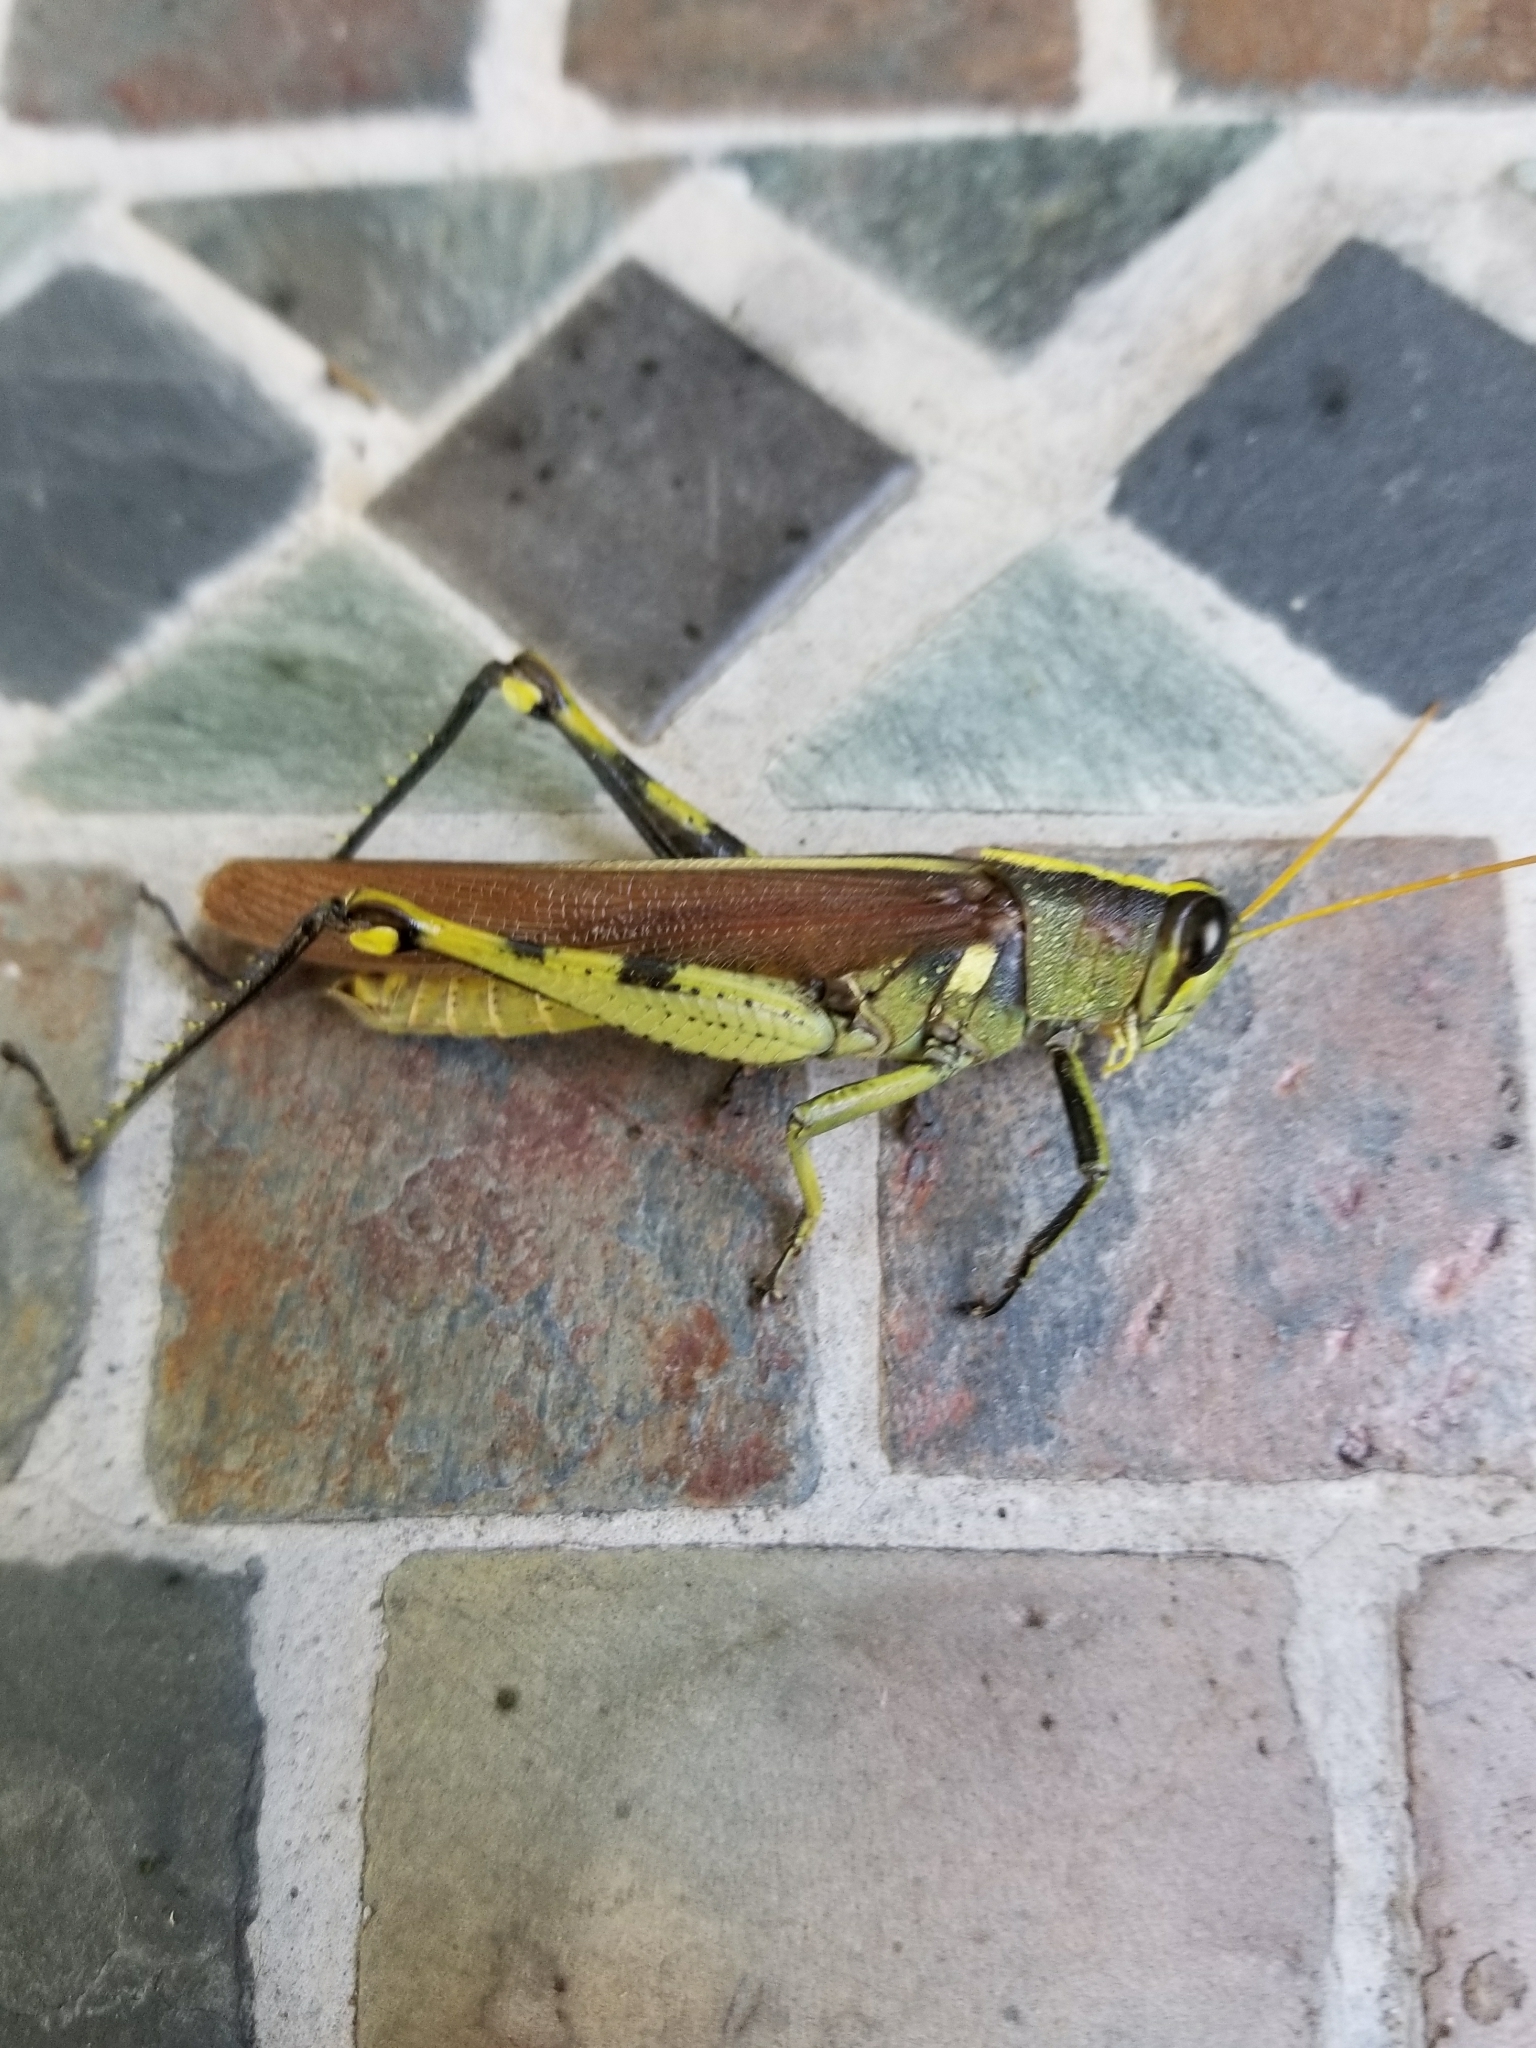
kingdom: Animalia
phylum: Arthropoda
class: Insecta
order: Orthoptera
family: Acrididae
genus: Schistocerca
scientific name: Schistocerca obscura
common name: Obscure bird grasshopper
